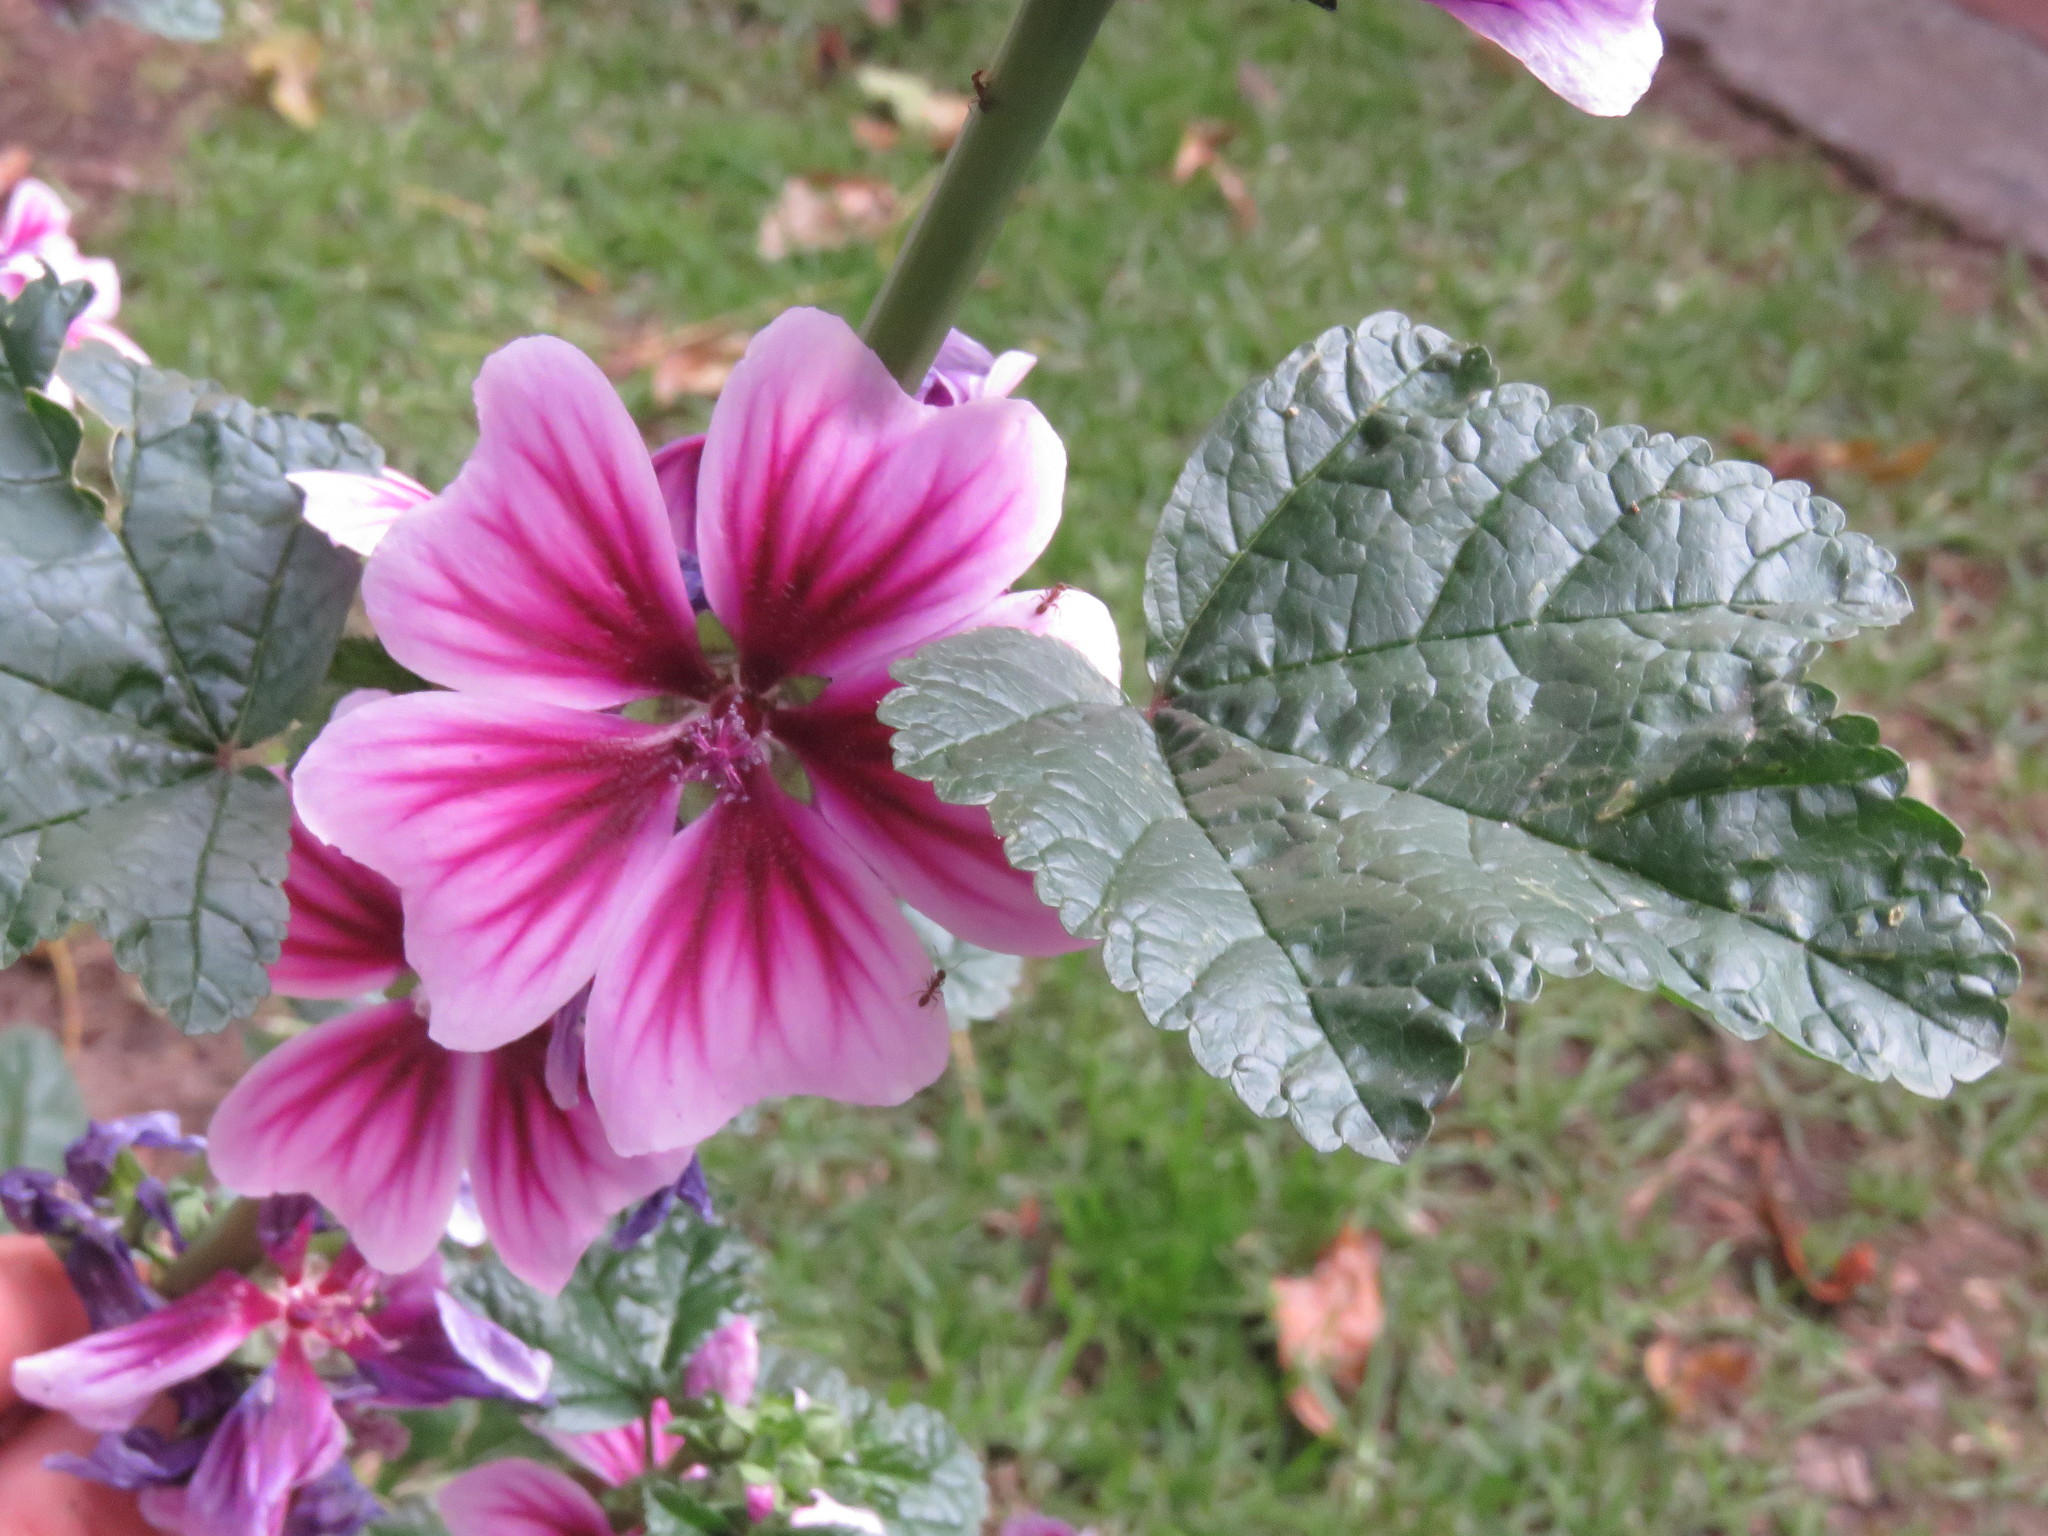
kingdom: Plantae
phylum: Tracheophyta
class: Magnoliopsida
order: Malvales
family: Malvaceae
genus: Malva
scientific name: Malva sylvestris
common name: Common mallow
